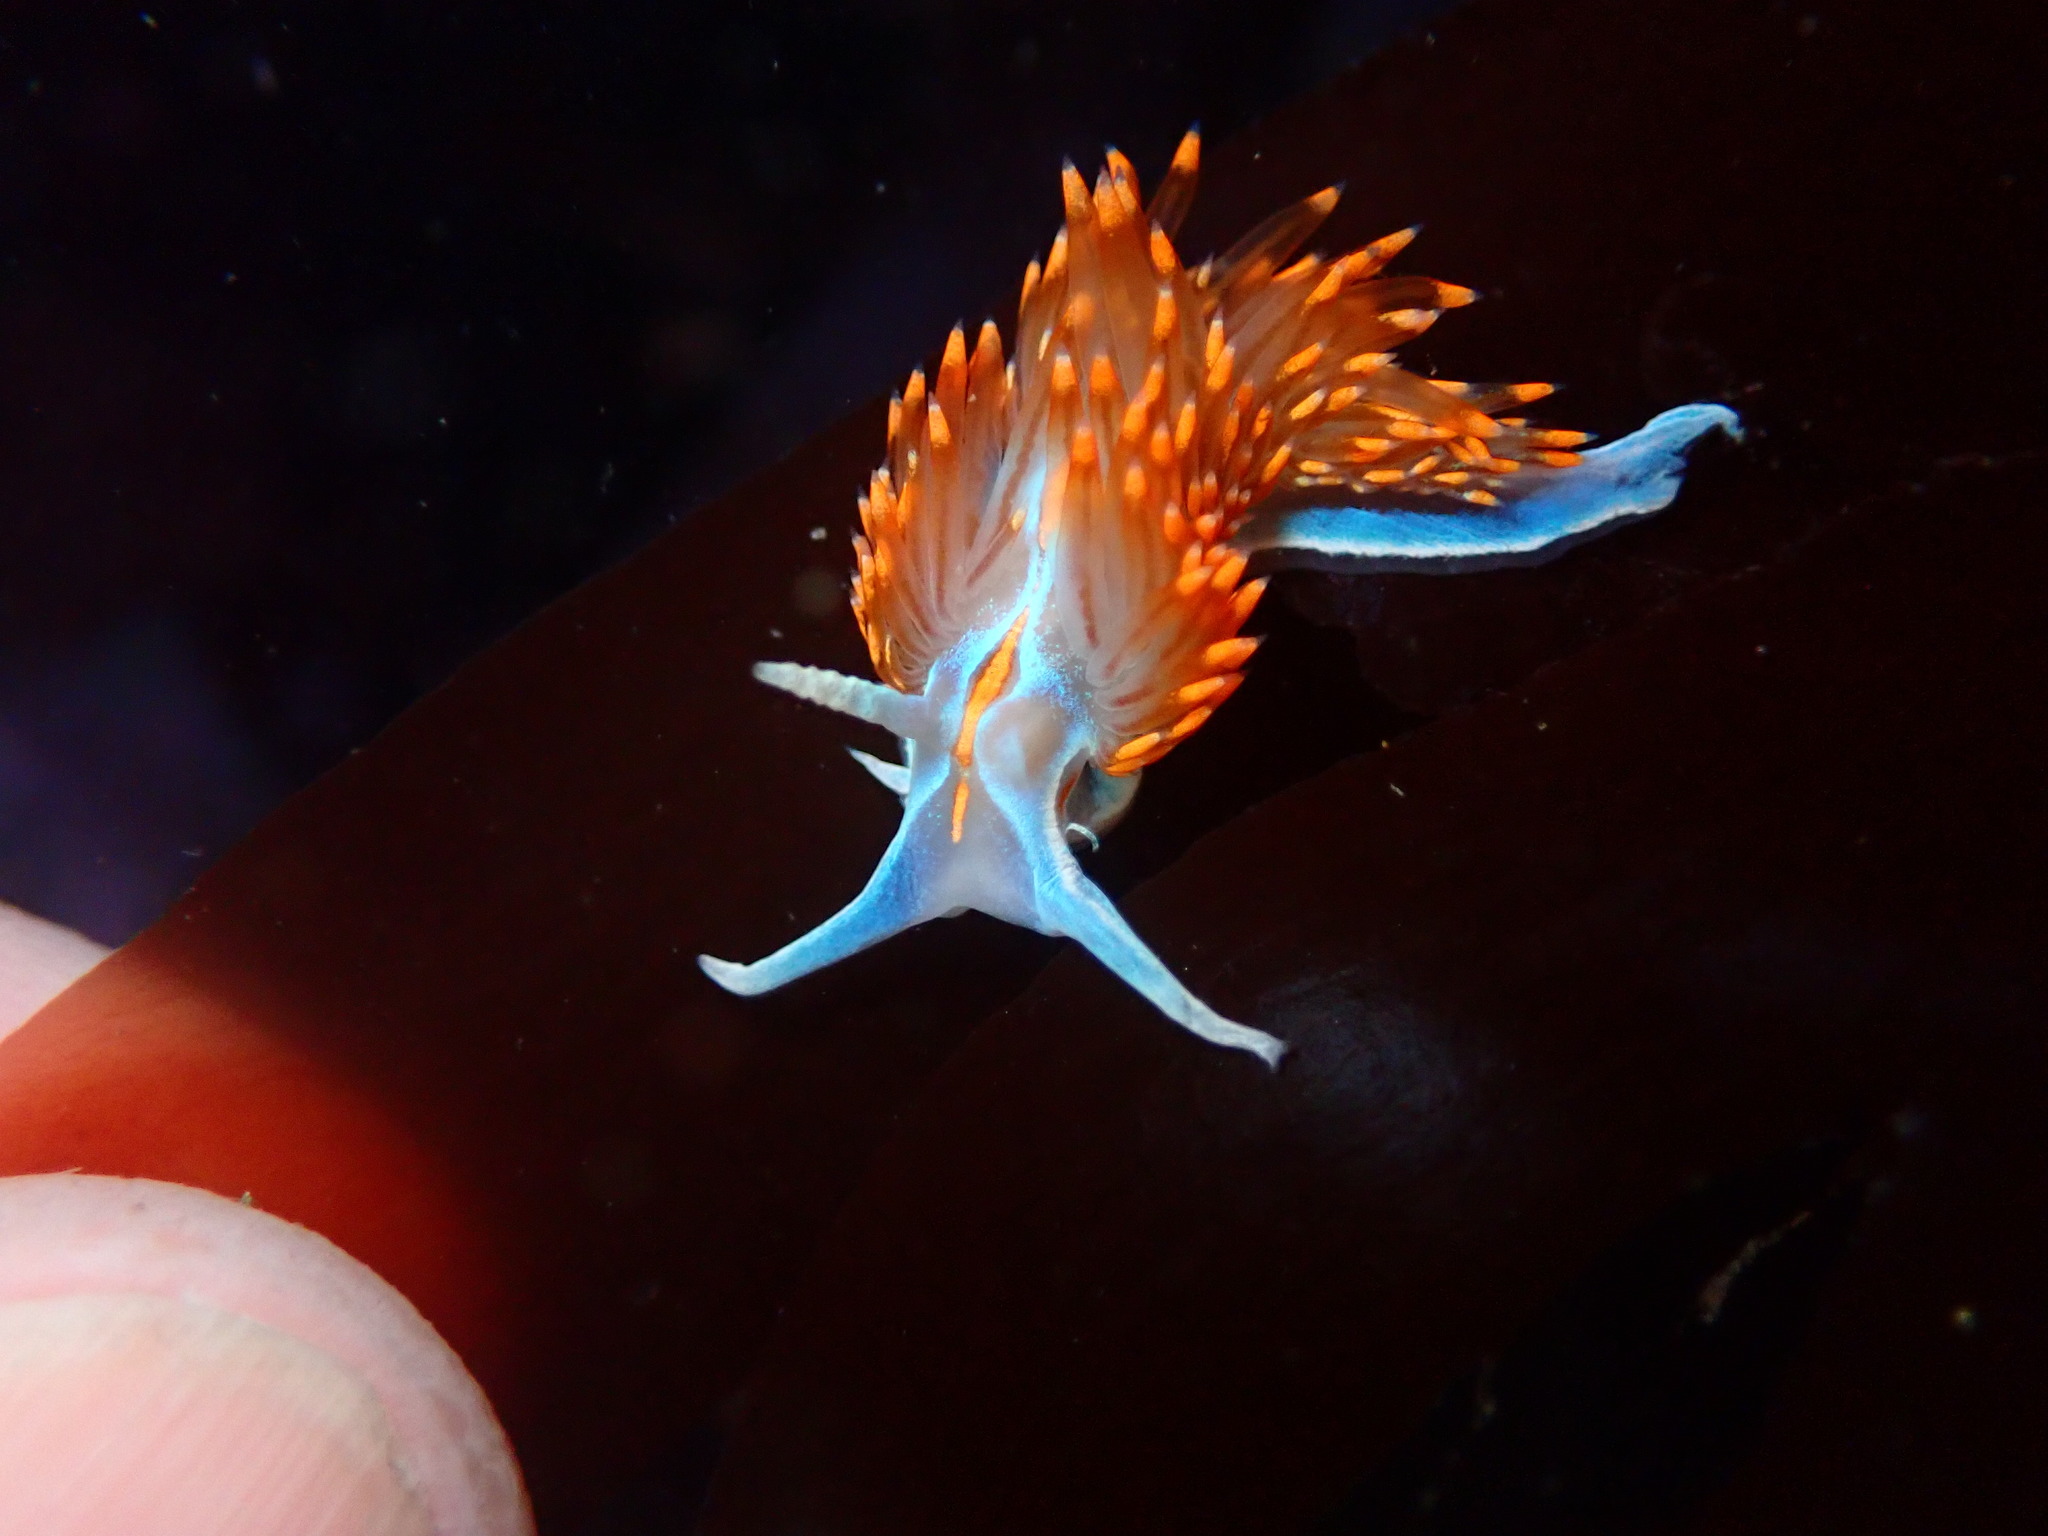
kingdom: Animalia
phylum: Mollusca
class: Gastropoda
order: Nudibranchia
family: Myrrhinidae
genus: Hermissenda
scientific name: Hermissenda opalescens
